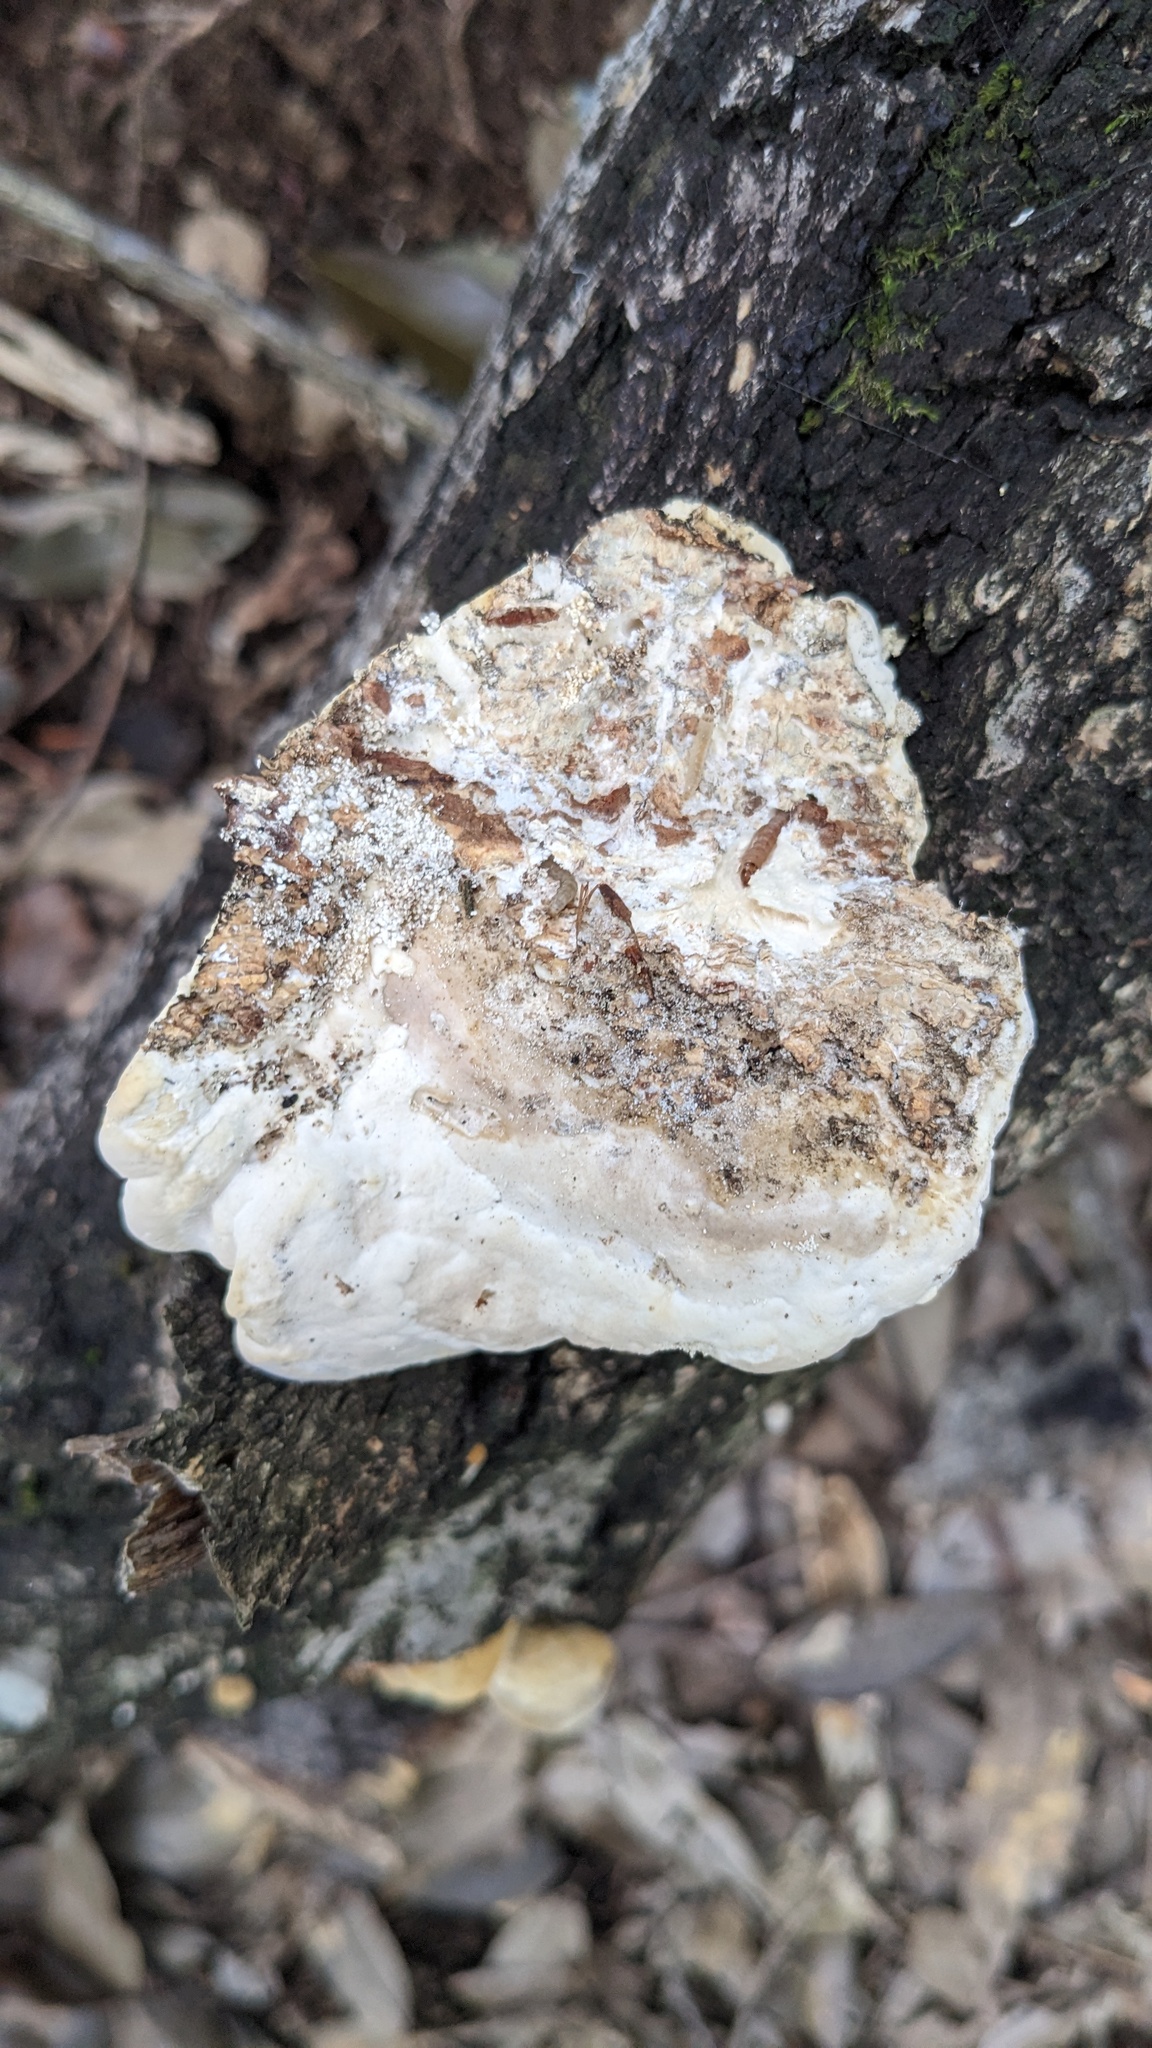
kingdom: Fungi
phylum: Basidiomycota
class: Agaricomycetes
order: Polyporales
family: Polyporaceae
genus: Trametes
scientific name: Trametes orientalis
